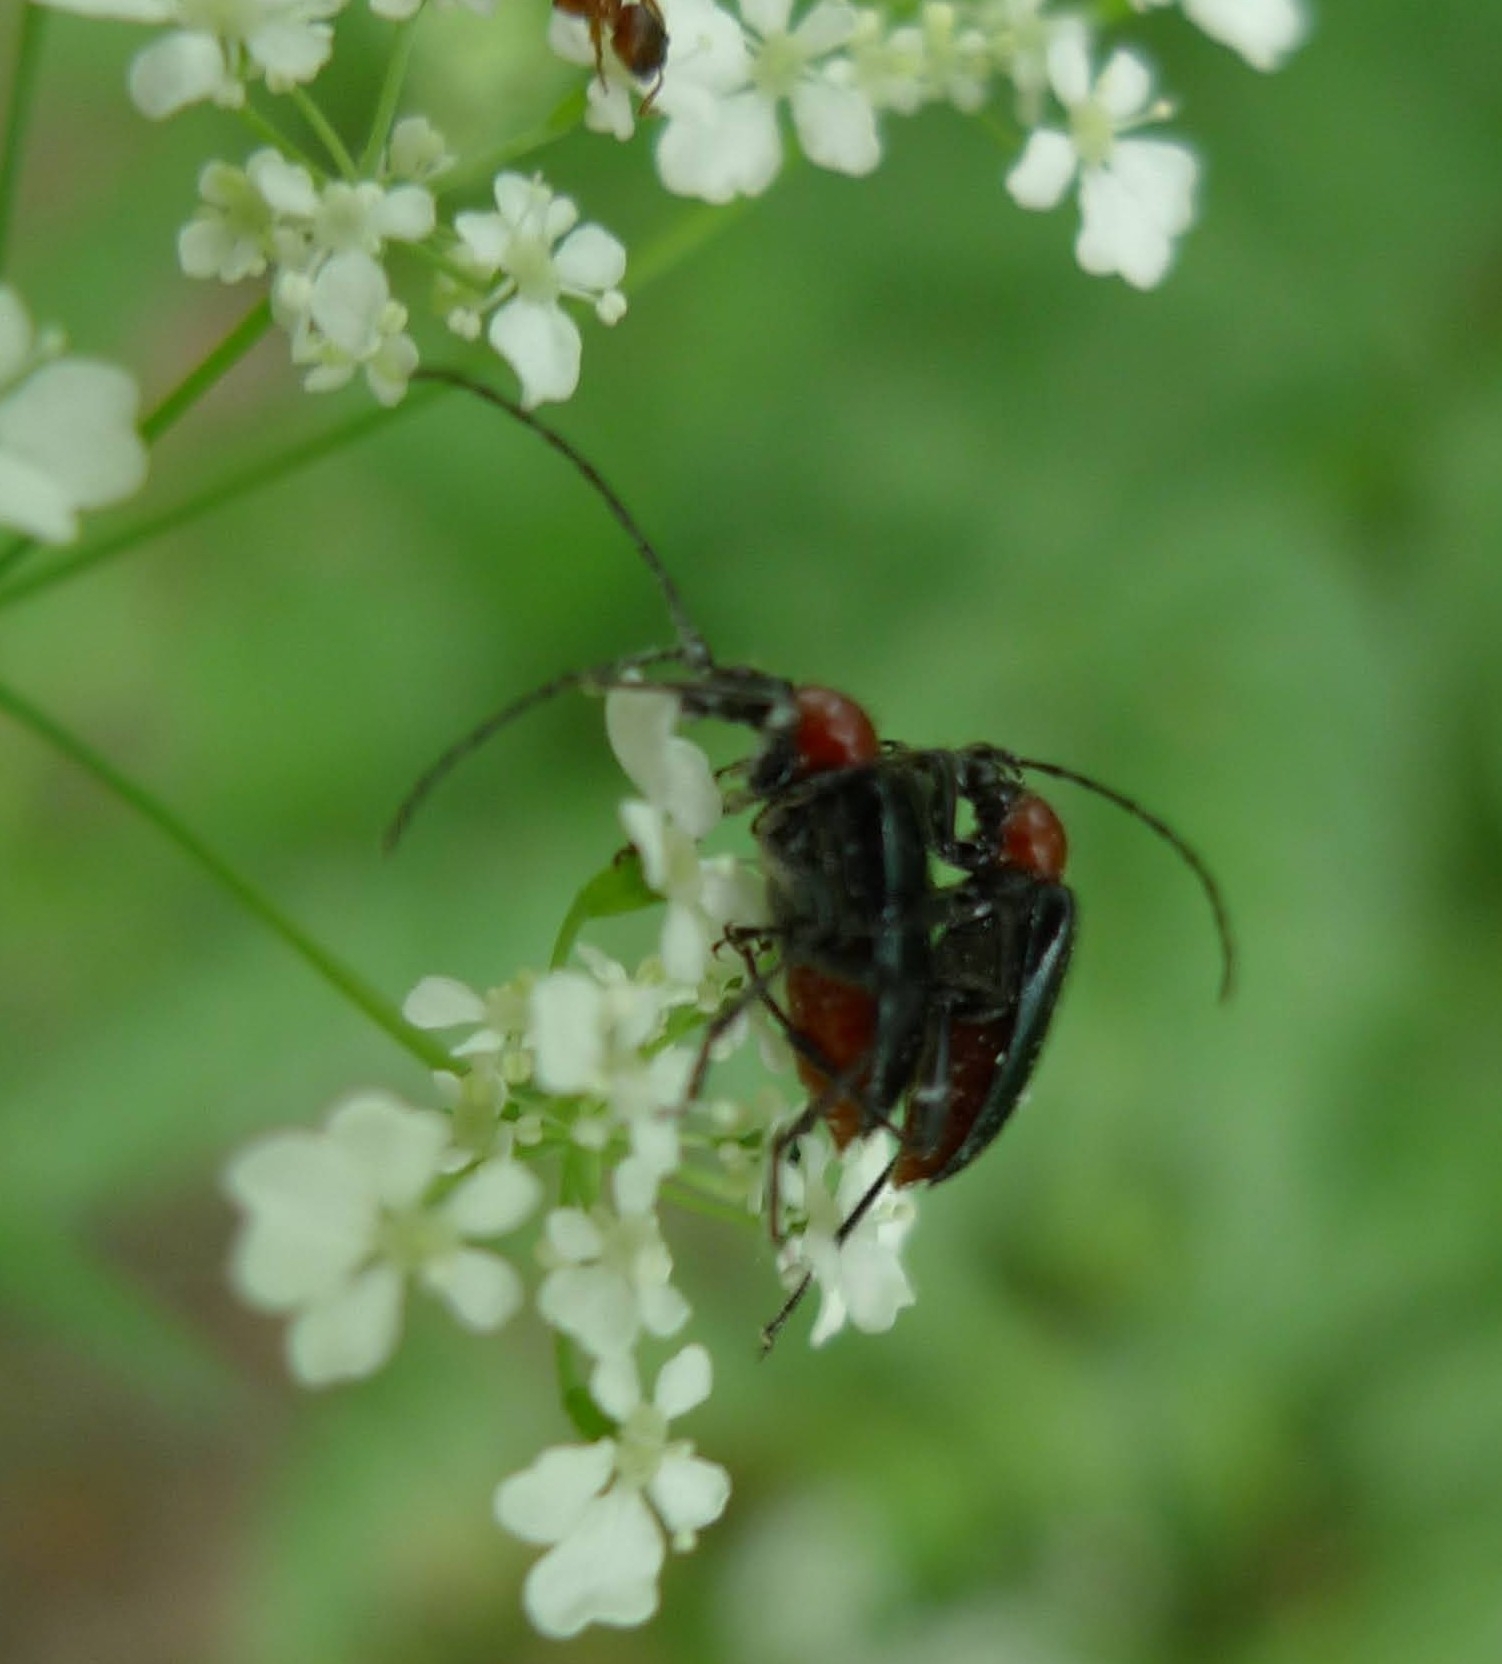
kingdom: Animalia
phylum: Arthropoda
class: Insecta
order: Coleoptera
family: Cerambycidae
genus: Dinoptera
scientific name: Dinoptera collaris
